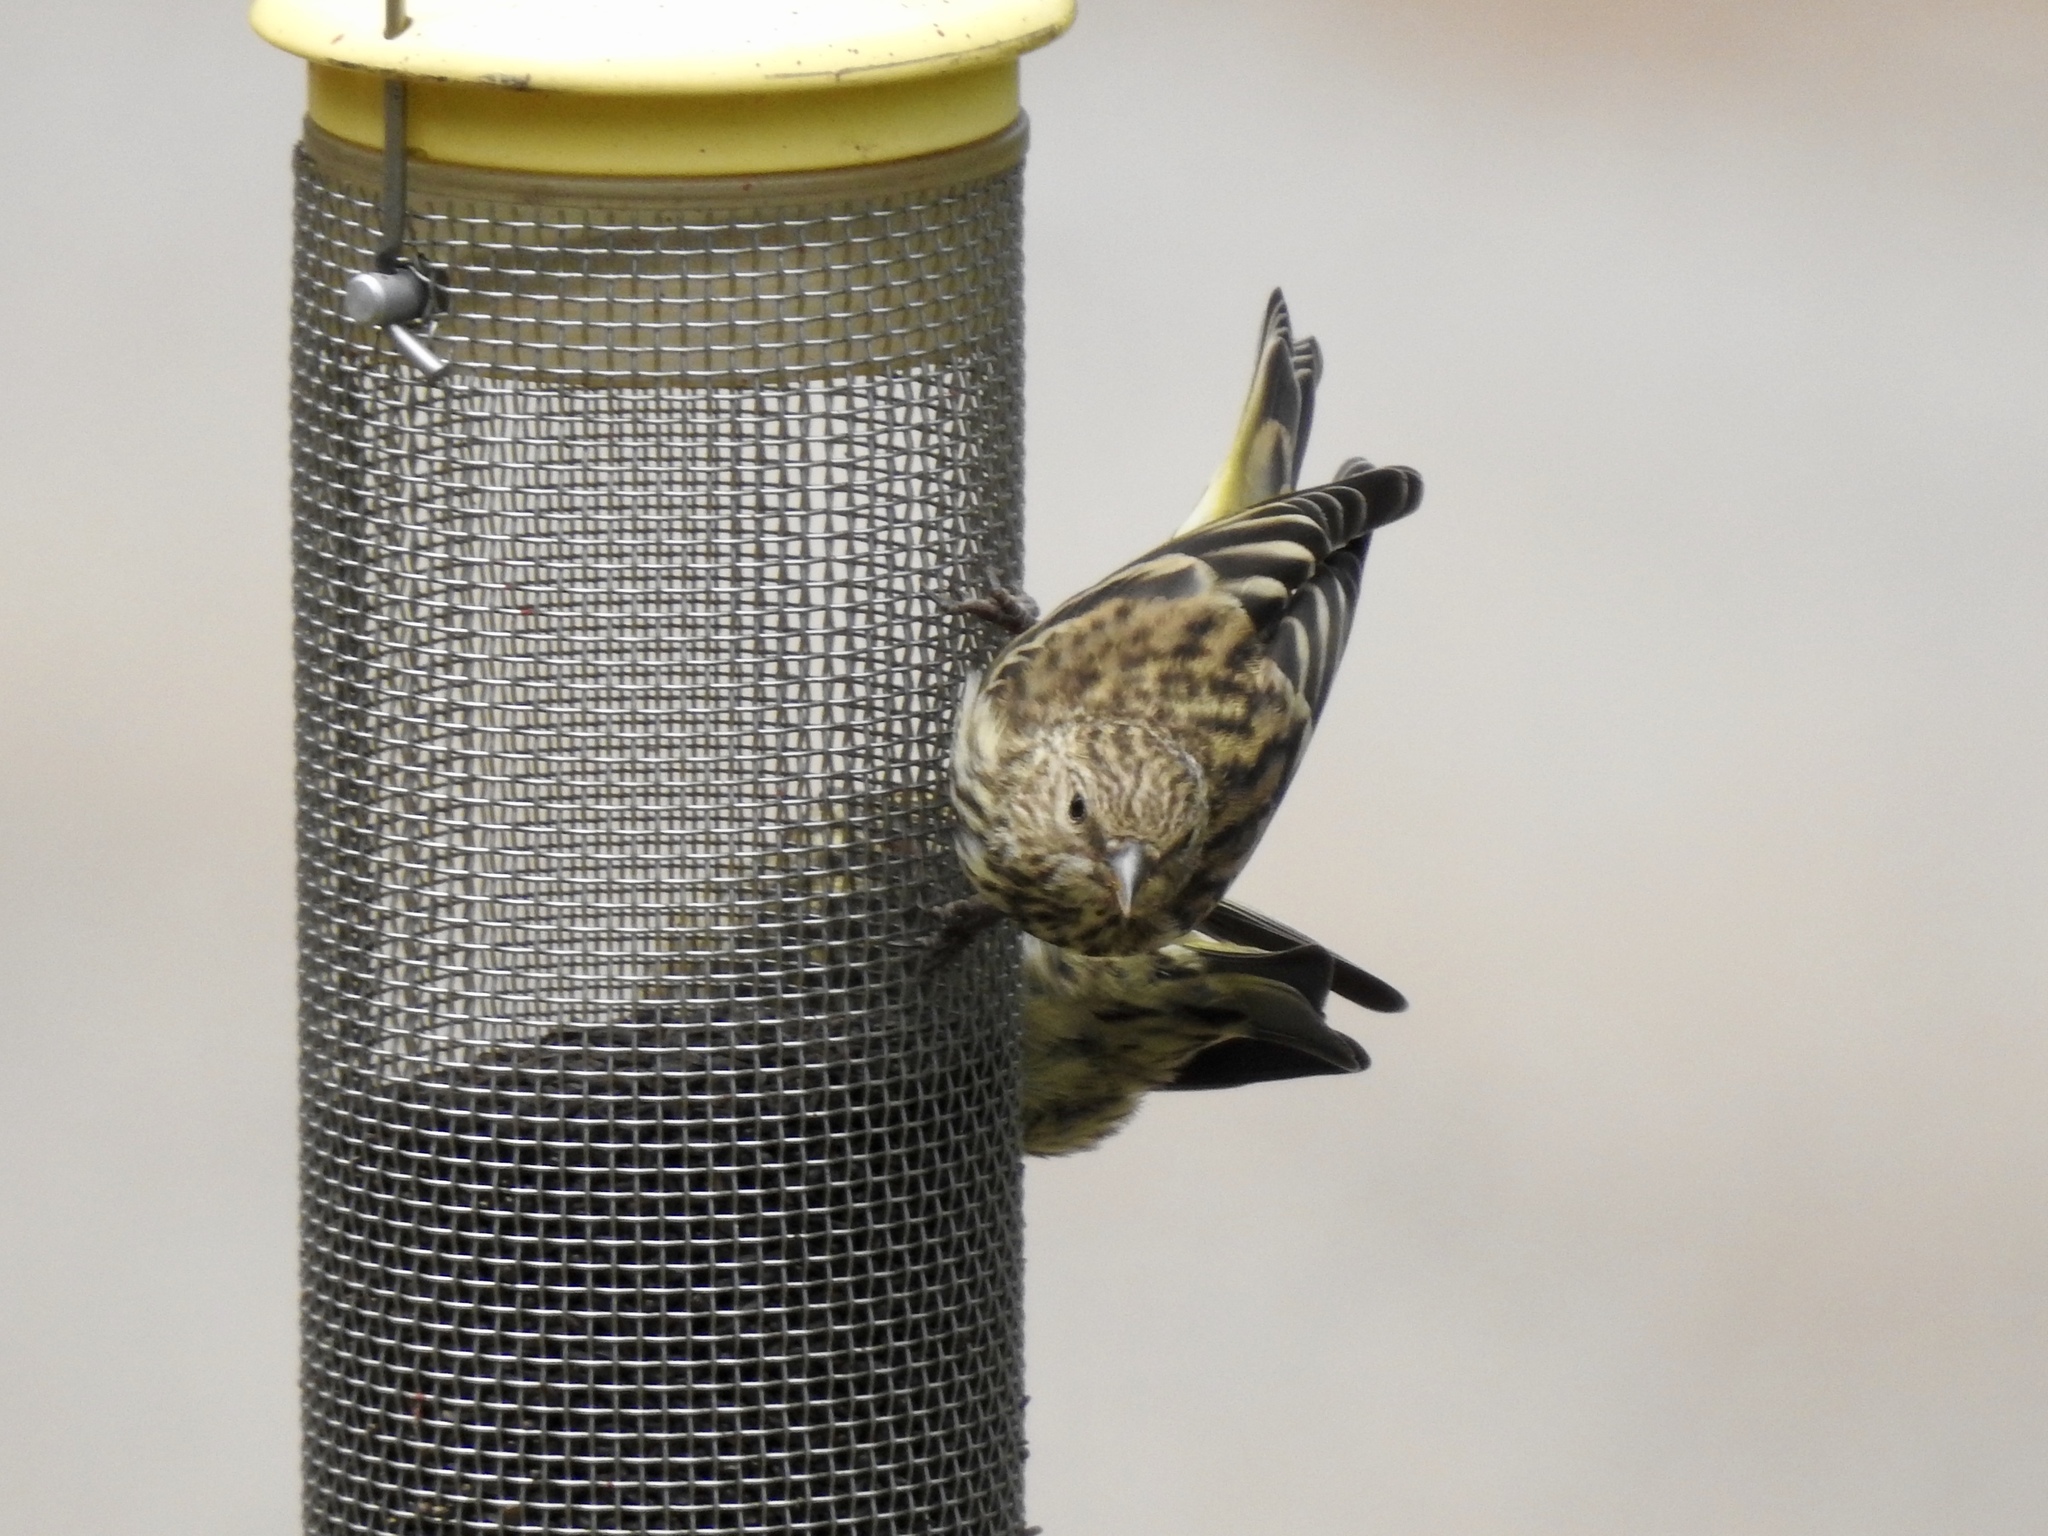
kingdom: Animalia
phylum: Chordata
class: Aves
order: Passeriformes
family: Fringillidae
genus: Spinus
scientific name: Spinus pinus
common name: Pine siskin
